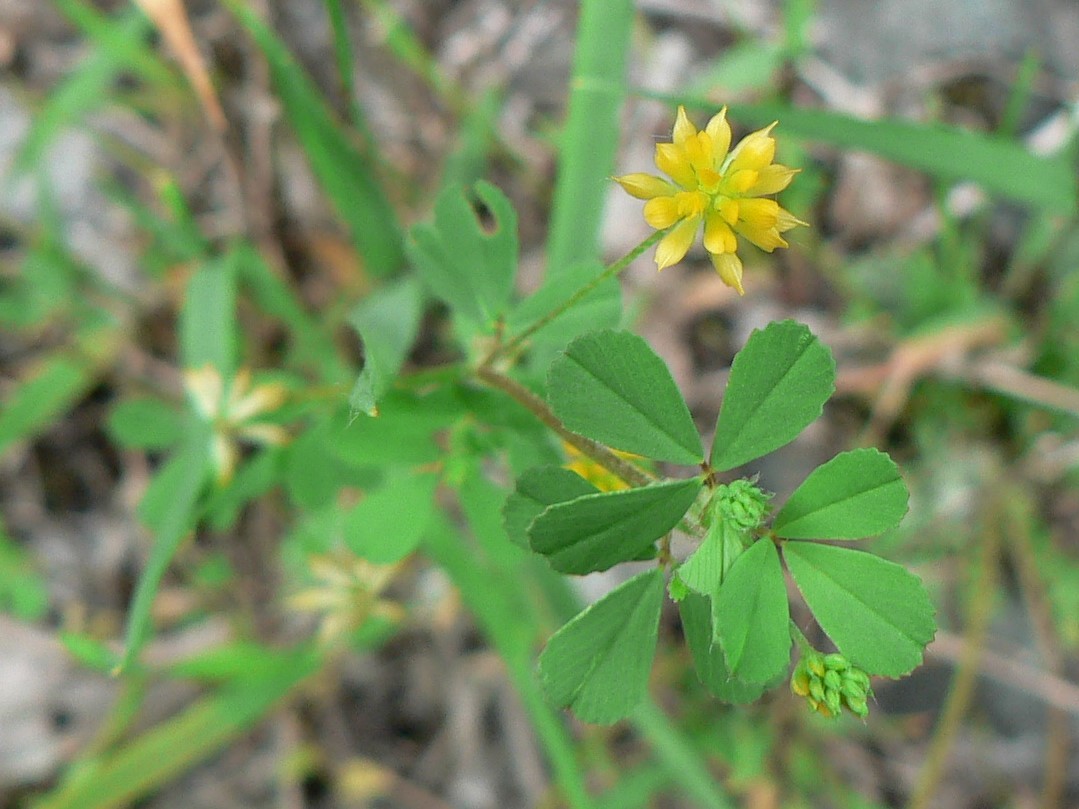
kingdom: Plantae
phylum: Tracheophyta
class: Magnoliopsida
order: Fabales
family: Fabaceae
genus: Trifolium
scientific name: Trifolium dubium
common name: Suckling clover
